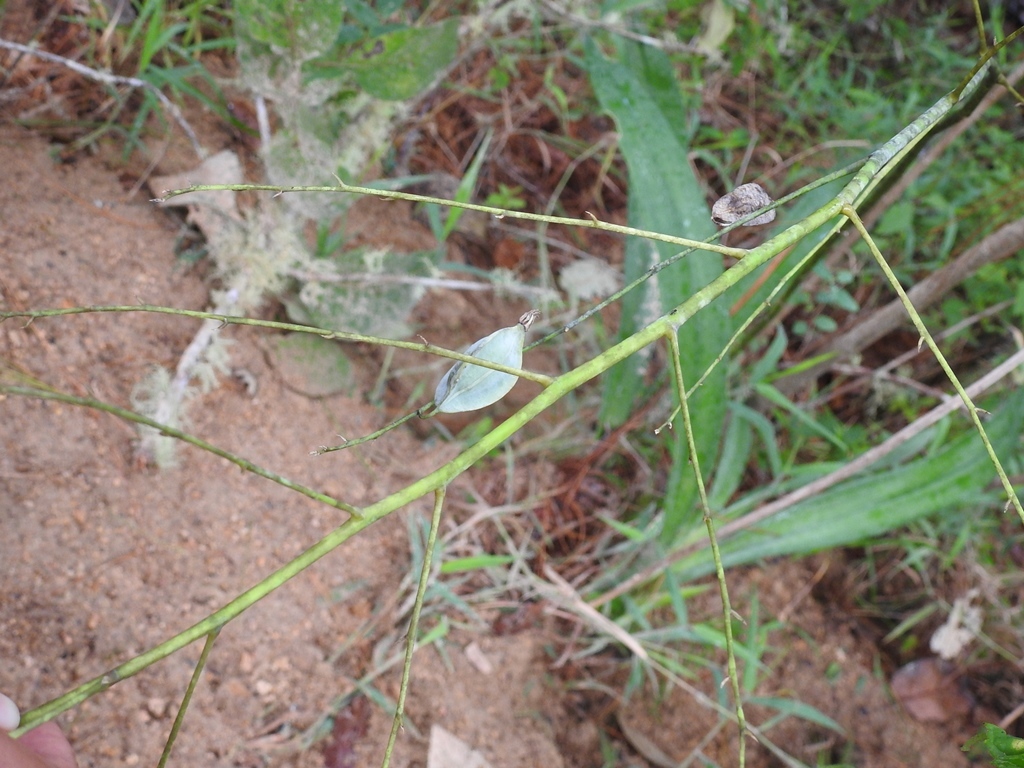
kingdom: Plantae
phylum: Tracheophyta
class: Liliopsida
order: Asparagales
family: Orchidaceae
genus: Prosthechea
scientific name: Prosthechea michuacana
